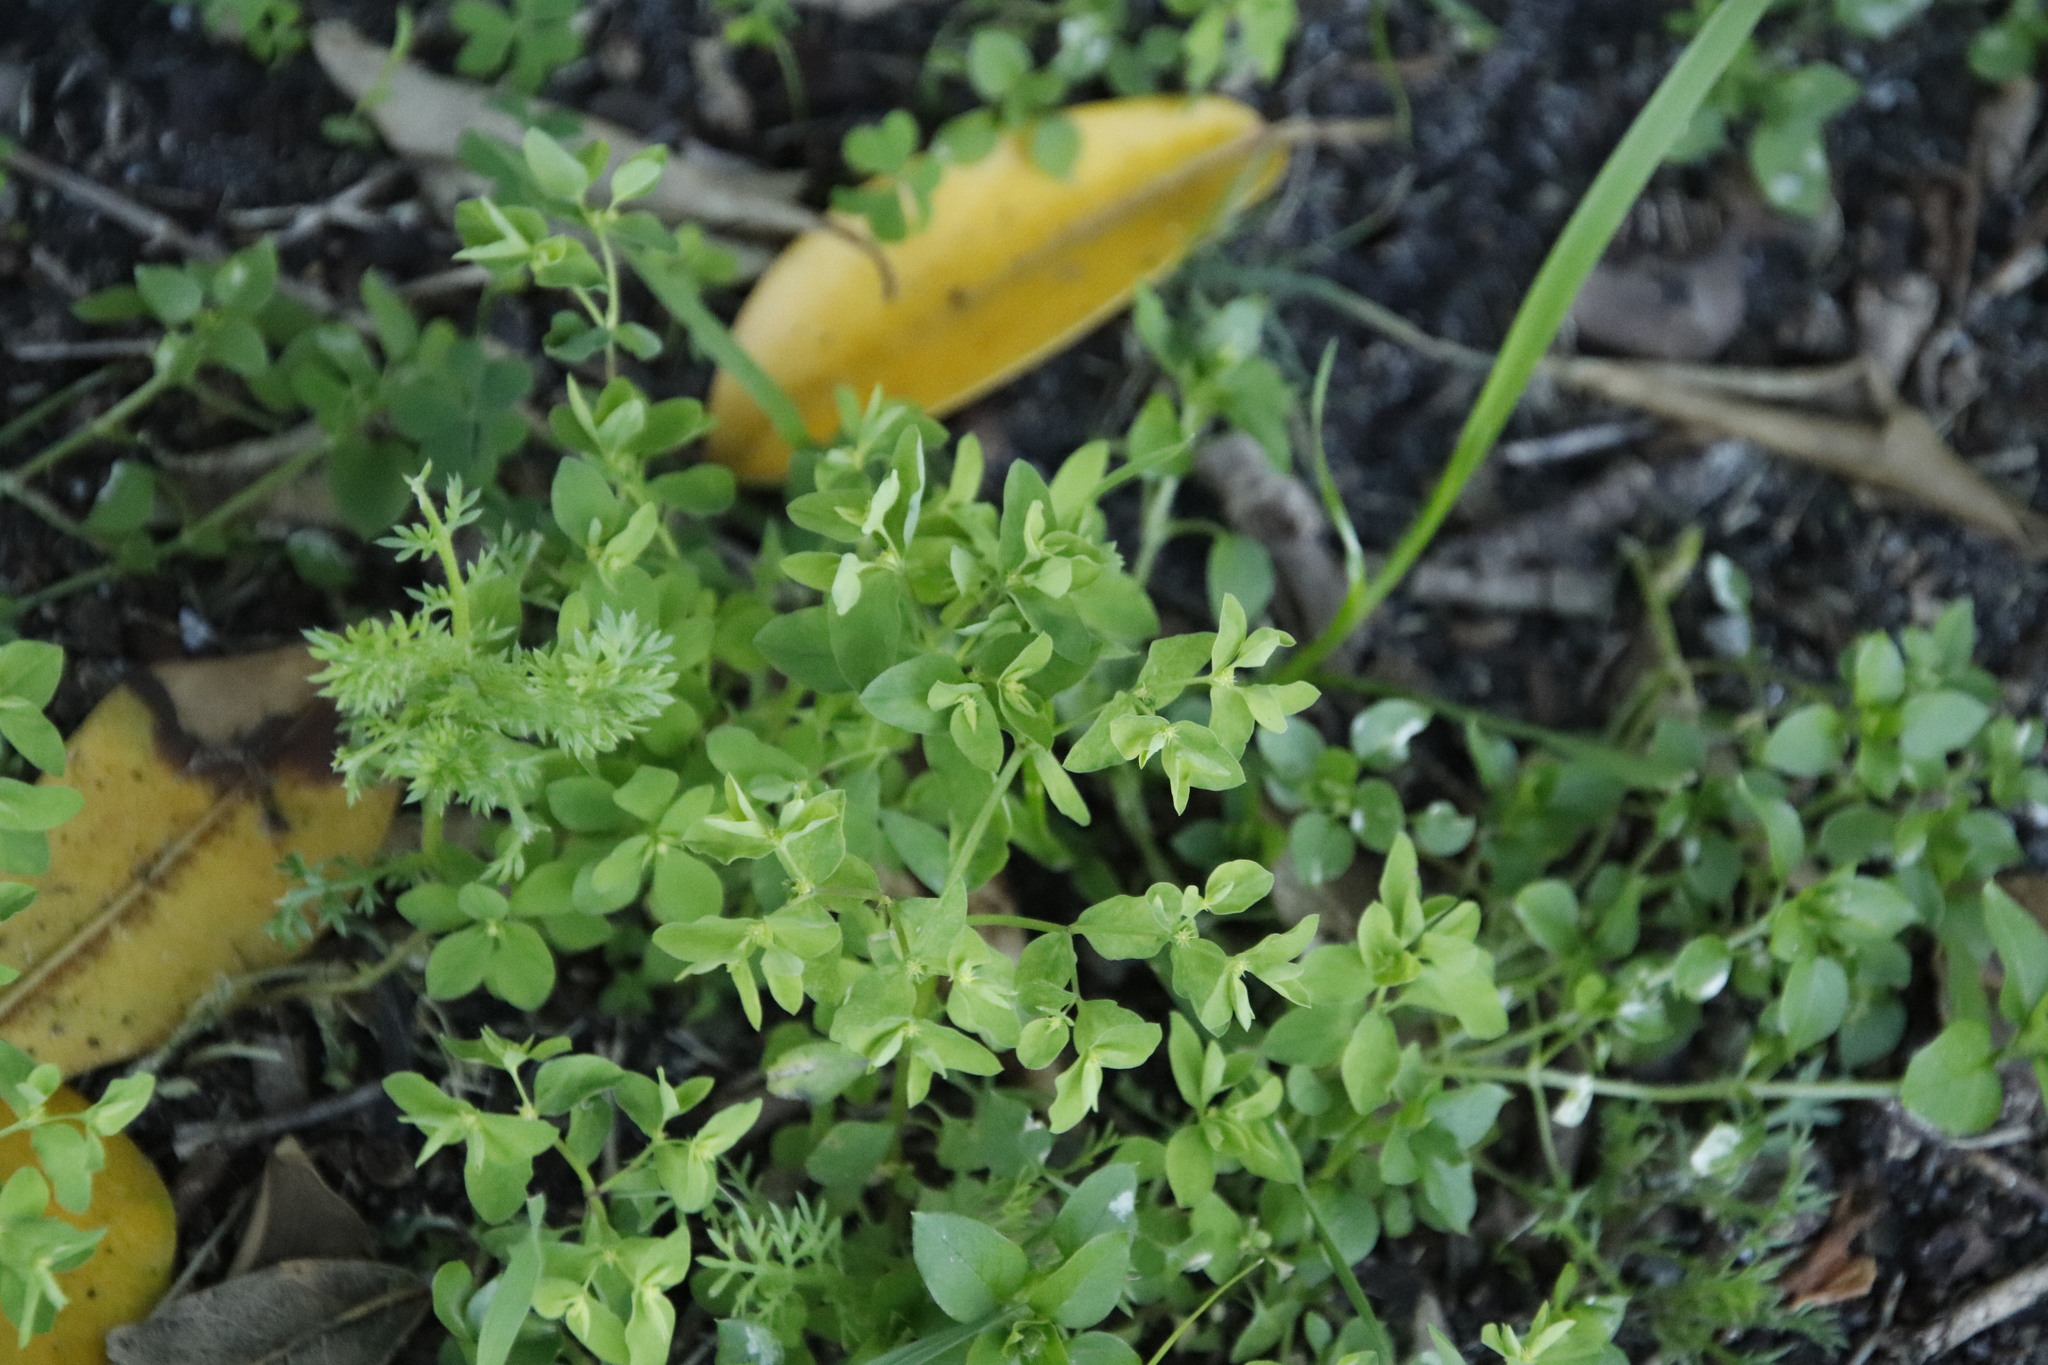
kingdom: Plantae
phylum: Tracheophyta
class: Magnoliopsida
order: Malpighiales
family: Euphorbiaceae
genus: Euphorbia
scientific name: Euphorbia peplus
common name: Petty spurge
